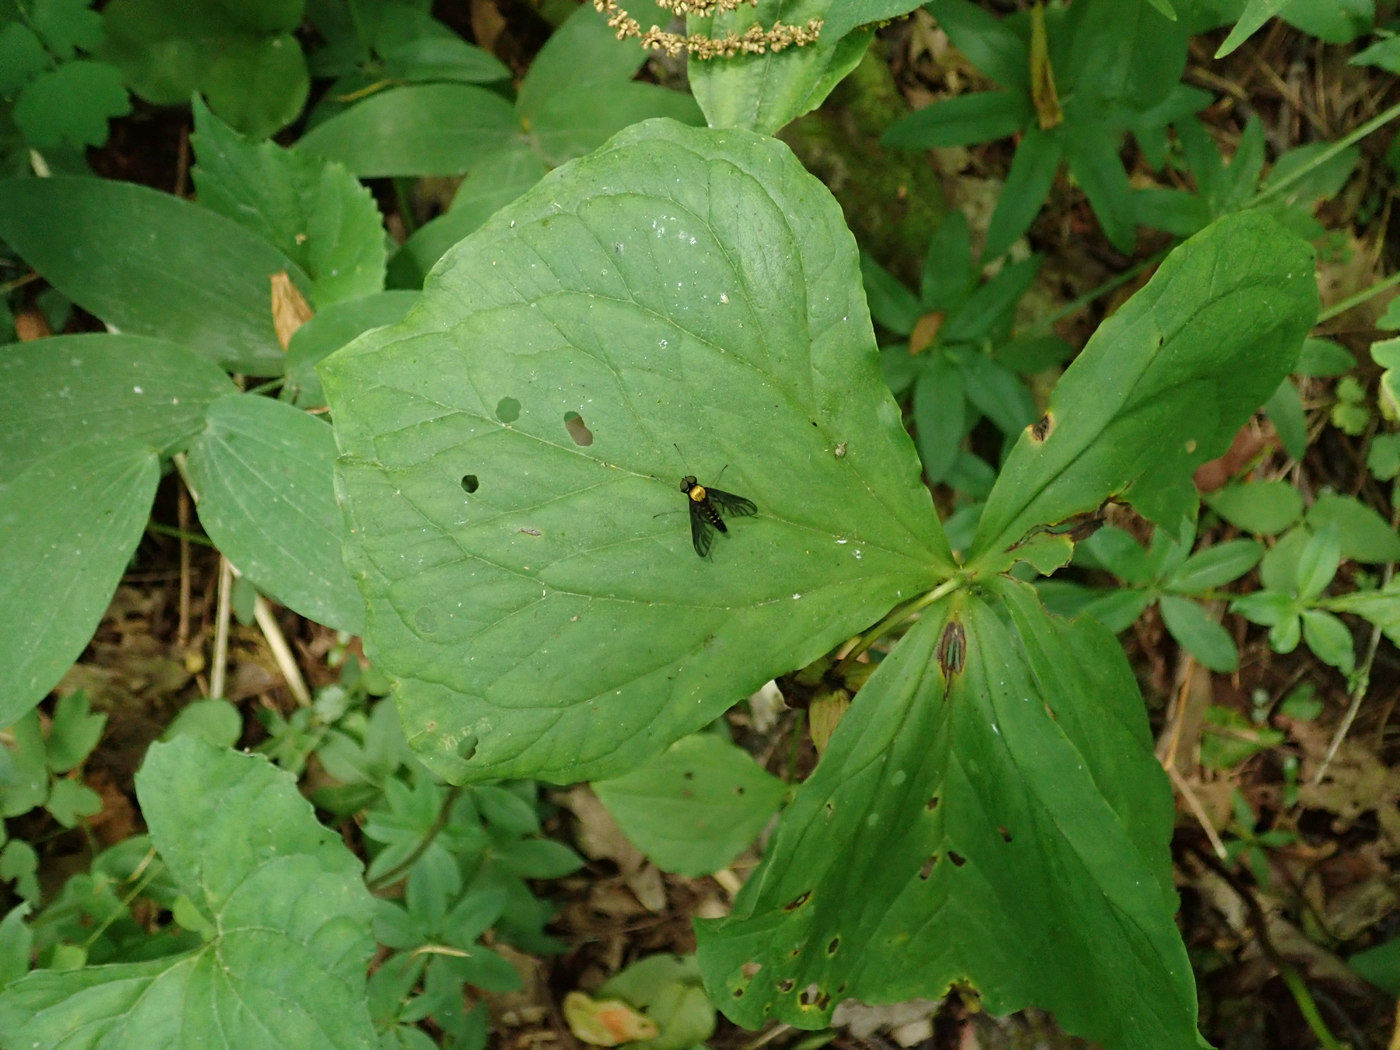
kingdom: Animalia
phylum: Arthropoda
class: Insecta
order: Diptera
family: Rhagionidae
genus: Chrysopilus
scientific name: Chrysopilus thoracicus
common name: Golden-backed snipe fly
